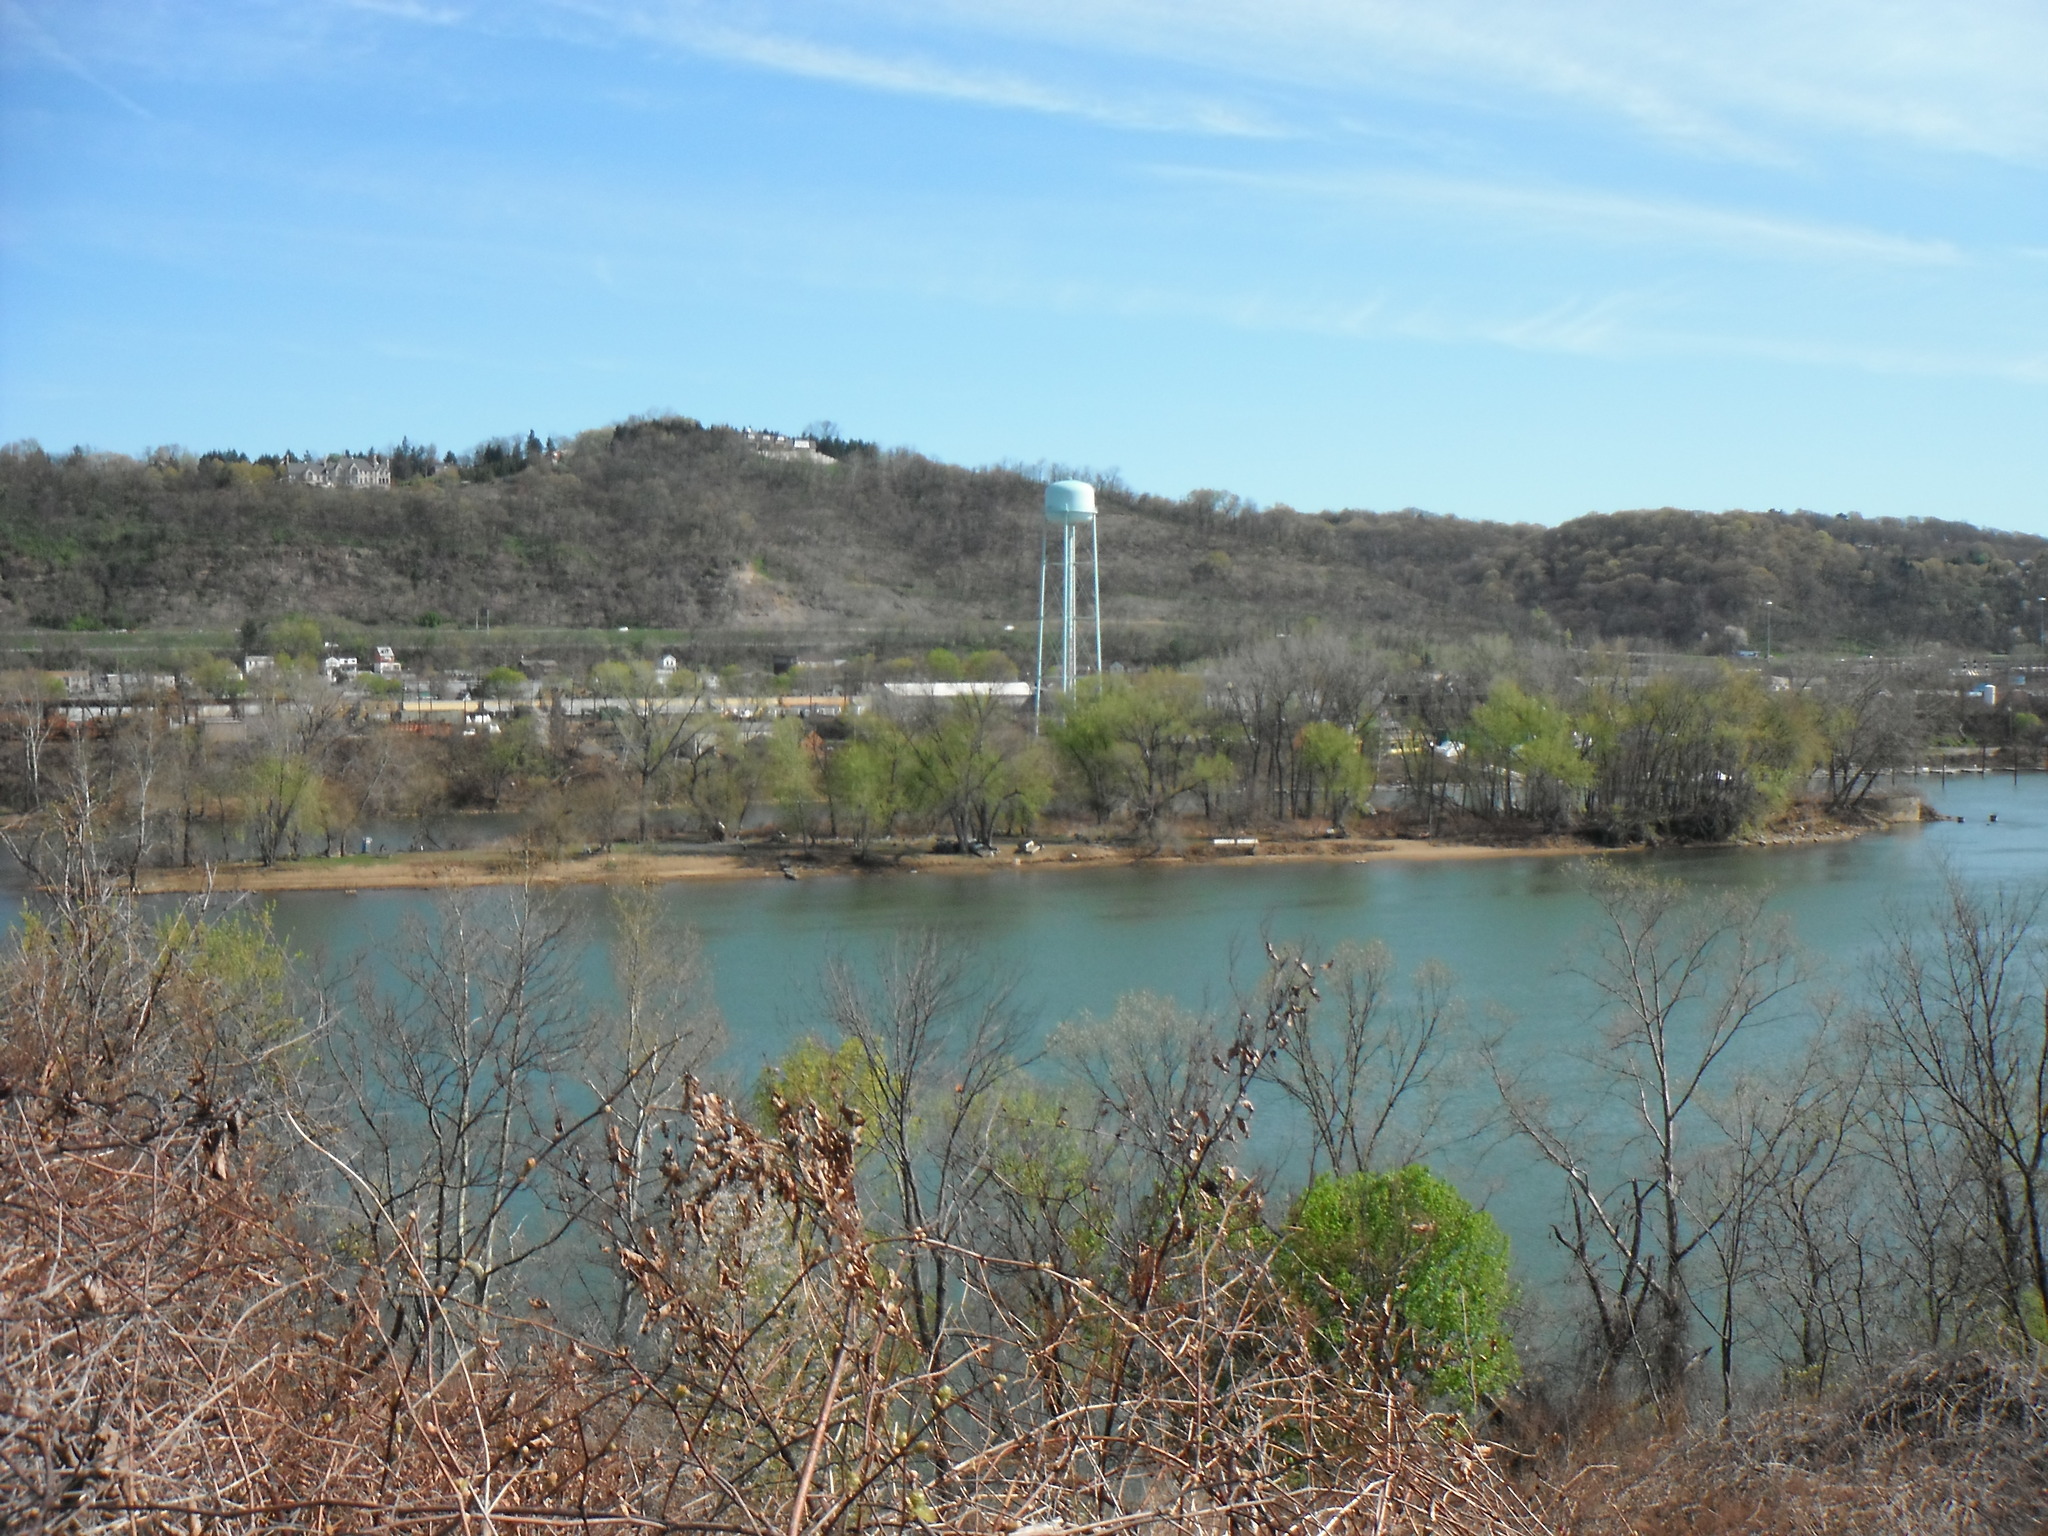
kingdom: Plantae
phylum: Tracheophyta
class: Magnoliopsida
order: Caryophyllales
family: Polygonaceae
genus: Reynoutria
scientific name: Reynoutria japonica
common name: Japanese knotweed
